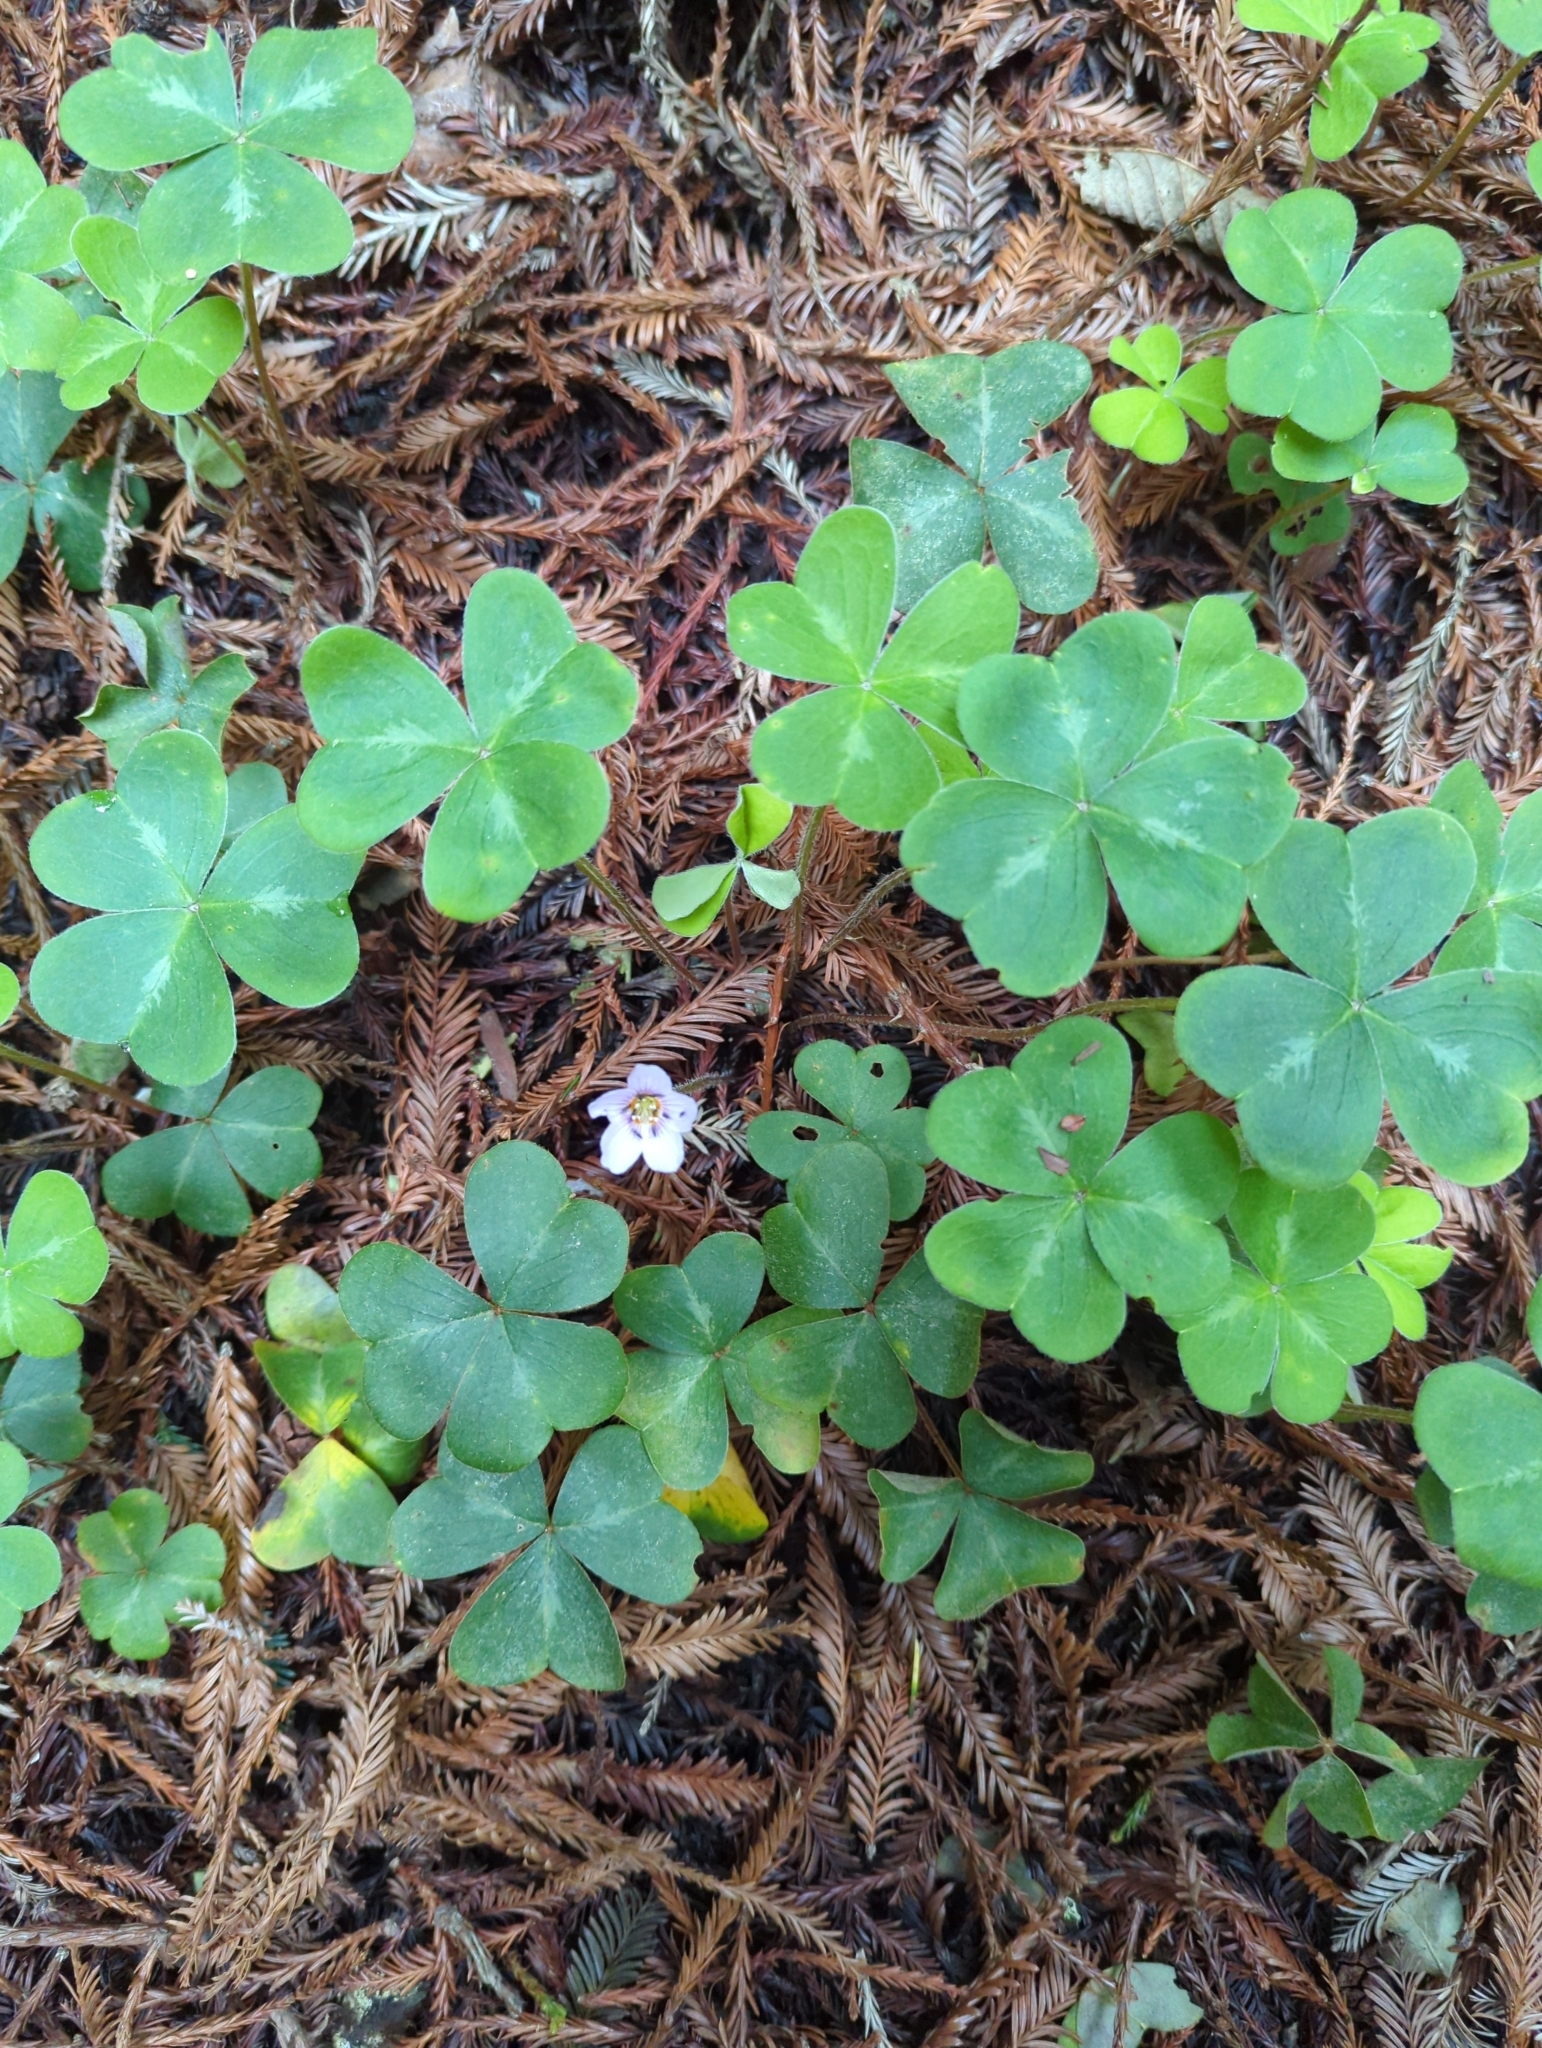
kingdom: Plantae
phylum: Tracheophyta
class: Magnoliopsida
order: Oxalidales
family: Oxalidaceae
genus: Oxalis
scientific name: Oxalis oregana
